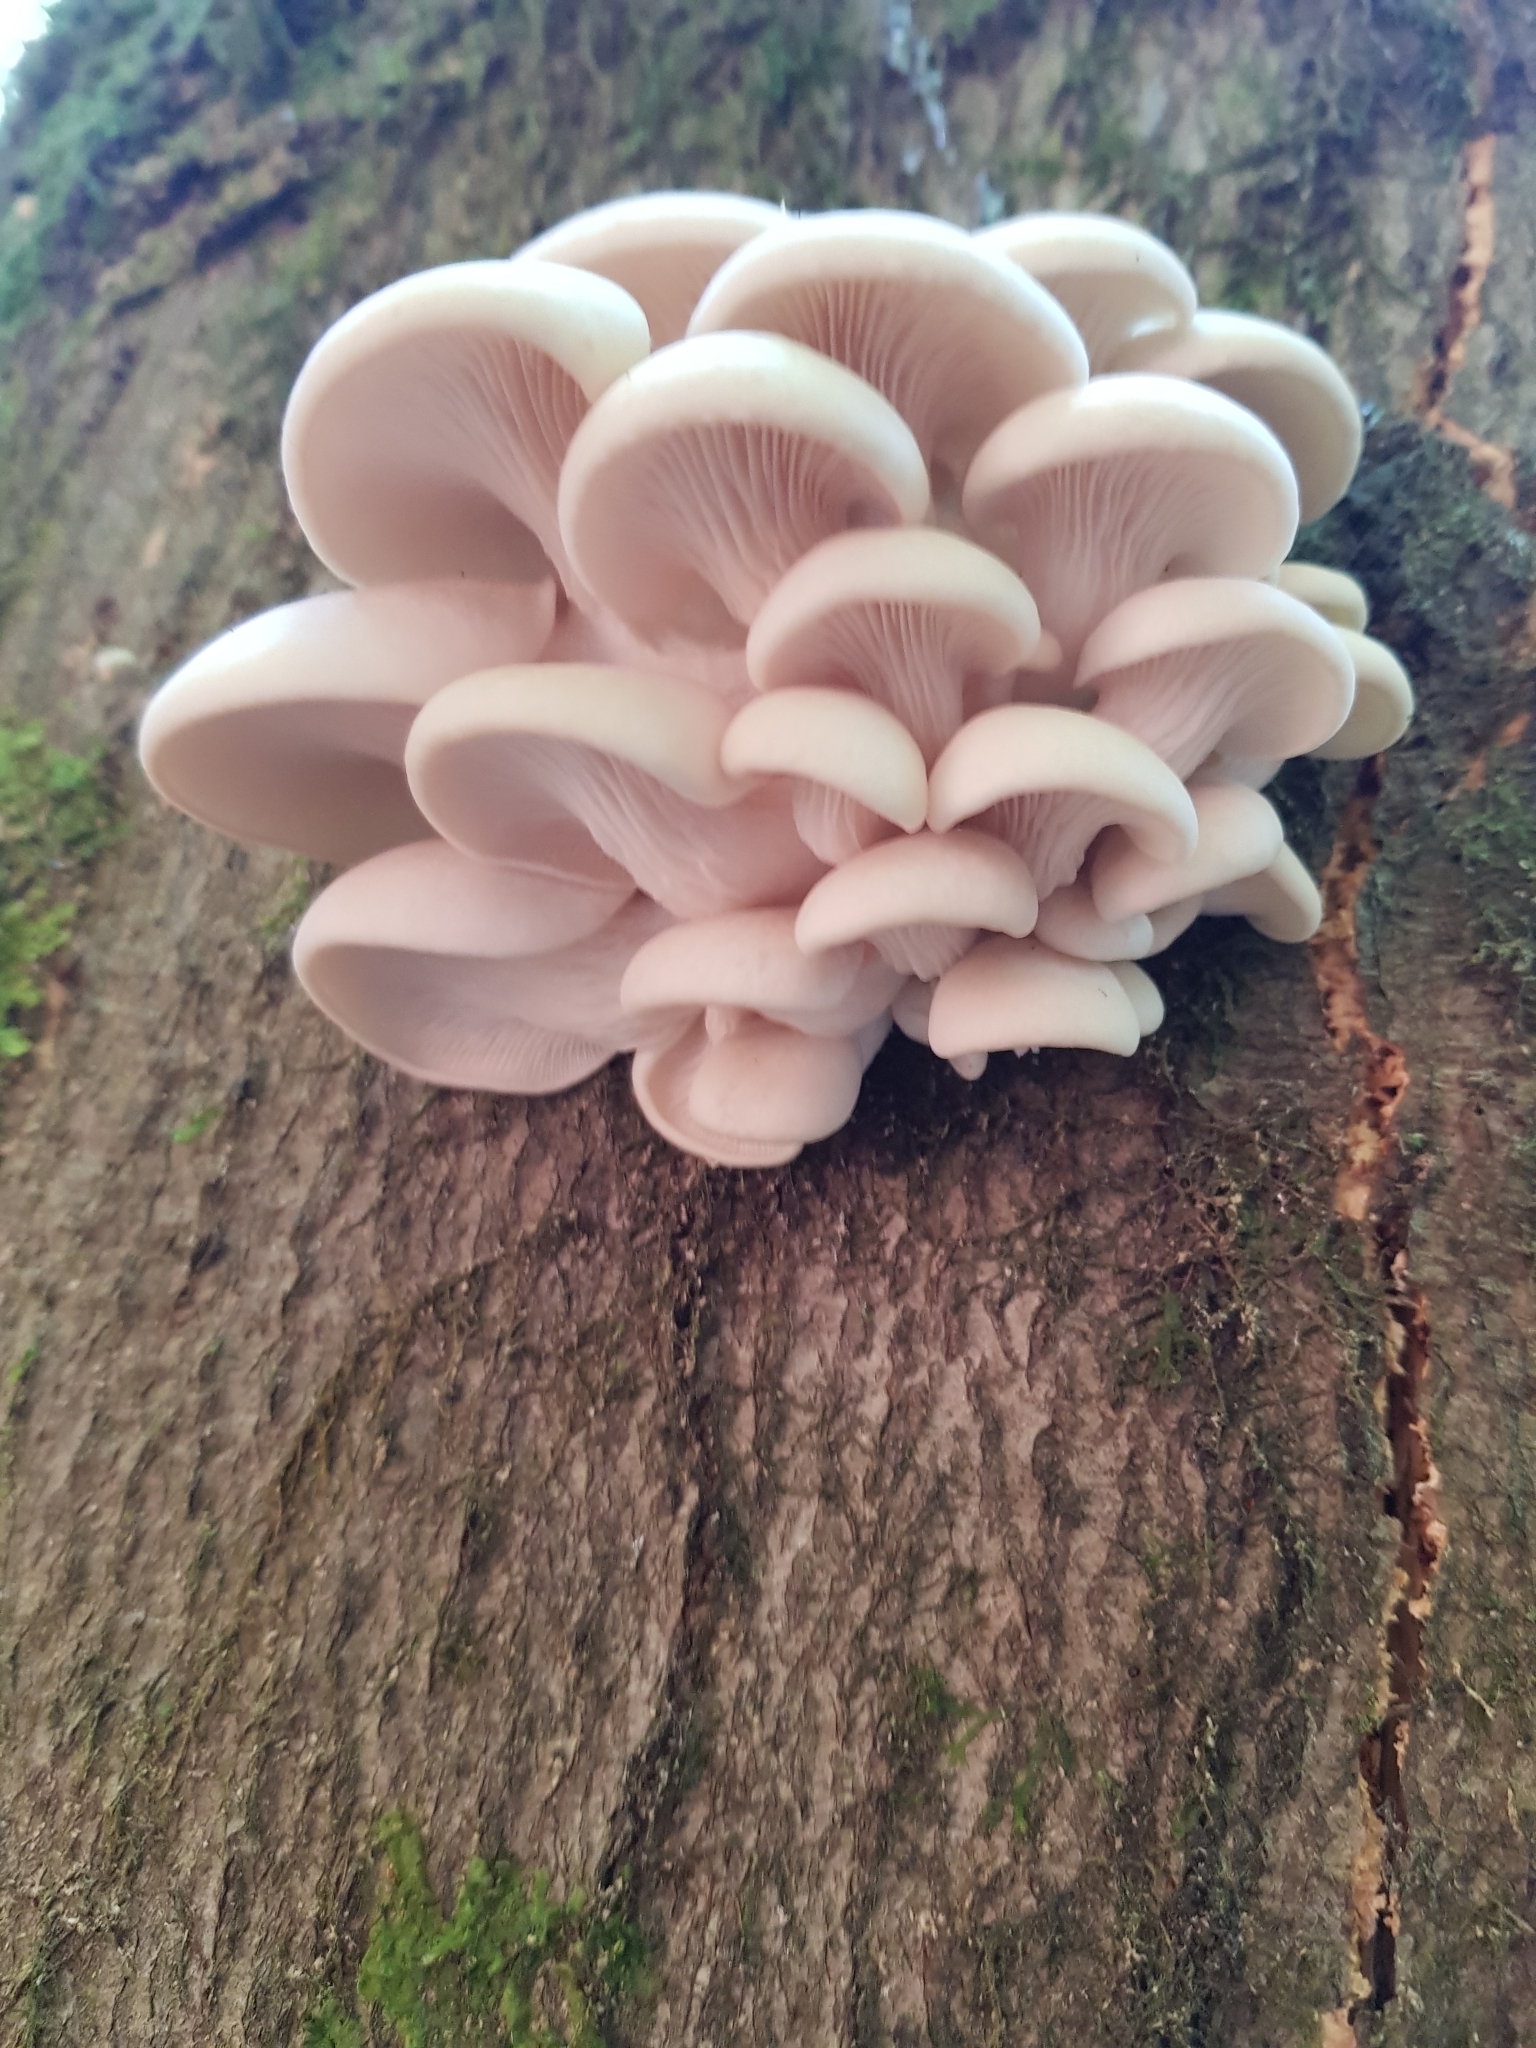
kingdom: Fungi
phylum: Basidiomycota
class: Agaricomycetes
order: Agaricales
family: Pleurotaceae
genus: Pleurotus
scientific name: Pleurotus pulmonarius
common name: Pale oyster
